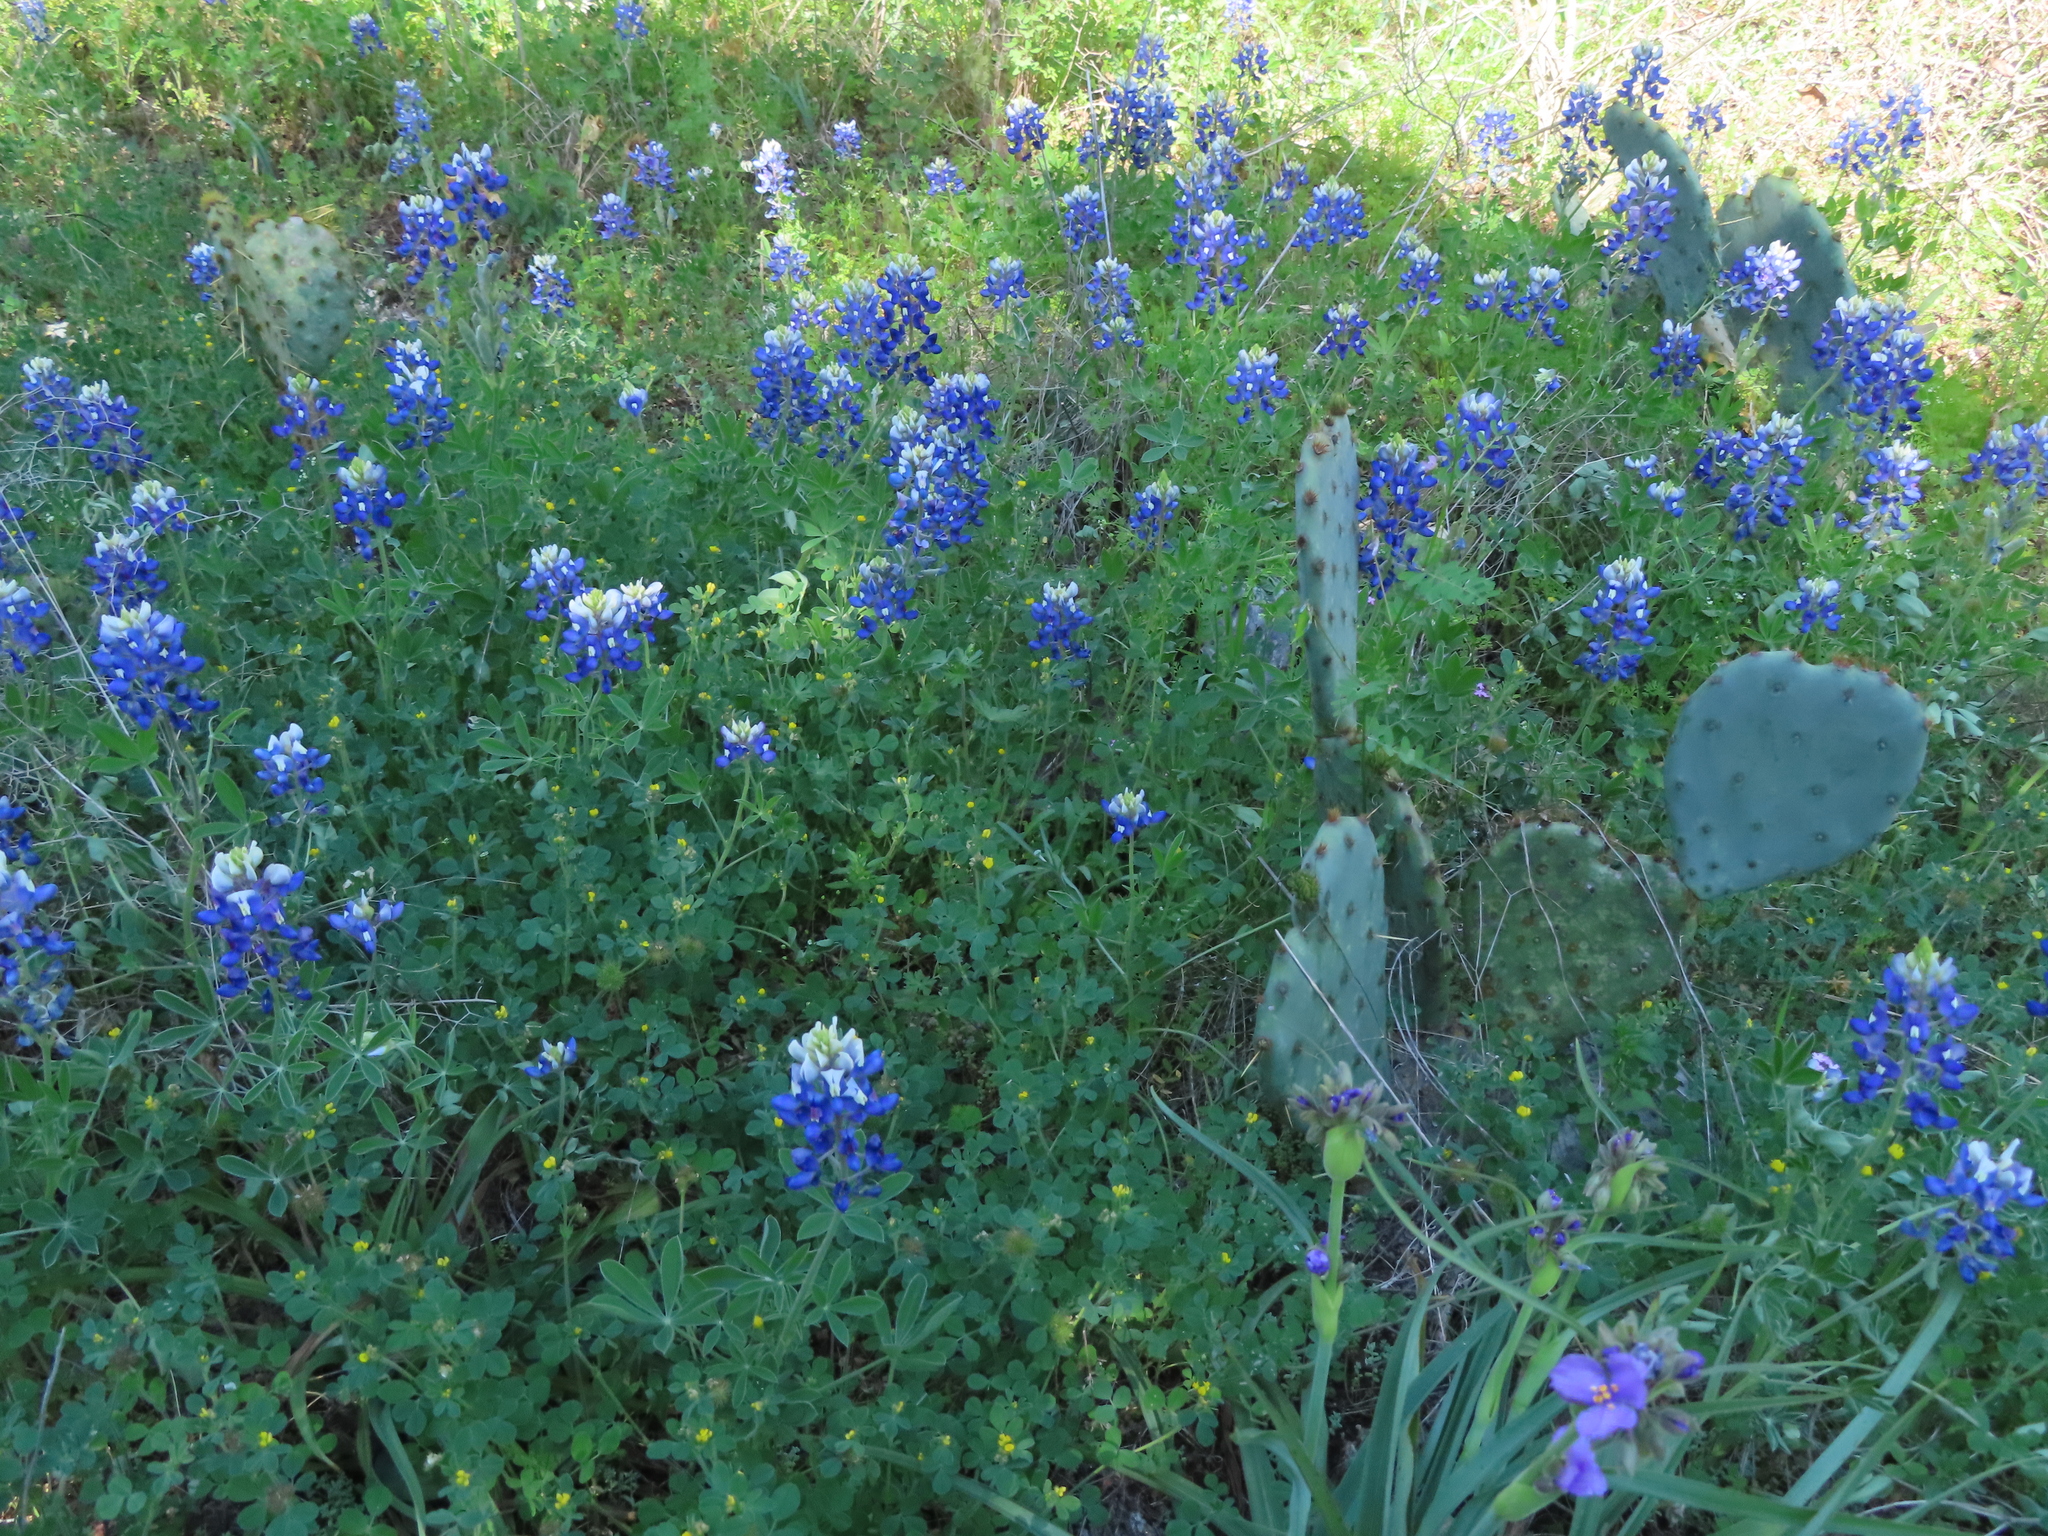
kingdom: Plantae
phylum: Tracheophyta
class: Magnoliopsida
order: Fabales
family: Fabaceae
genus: Lupinus
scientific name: Lupinus texensis
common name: Texas bluebonnet
